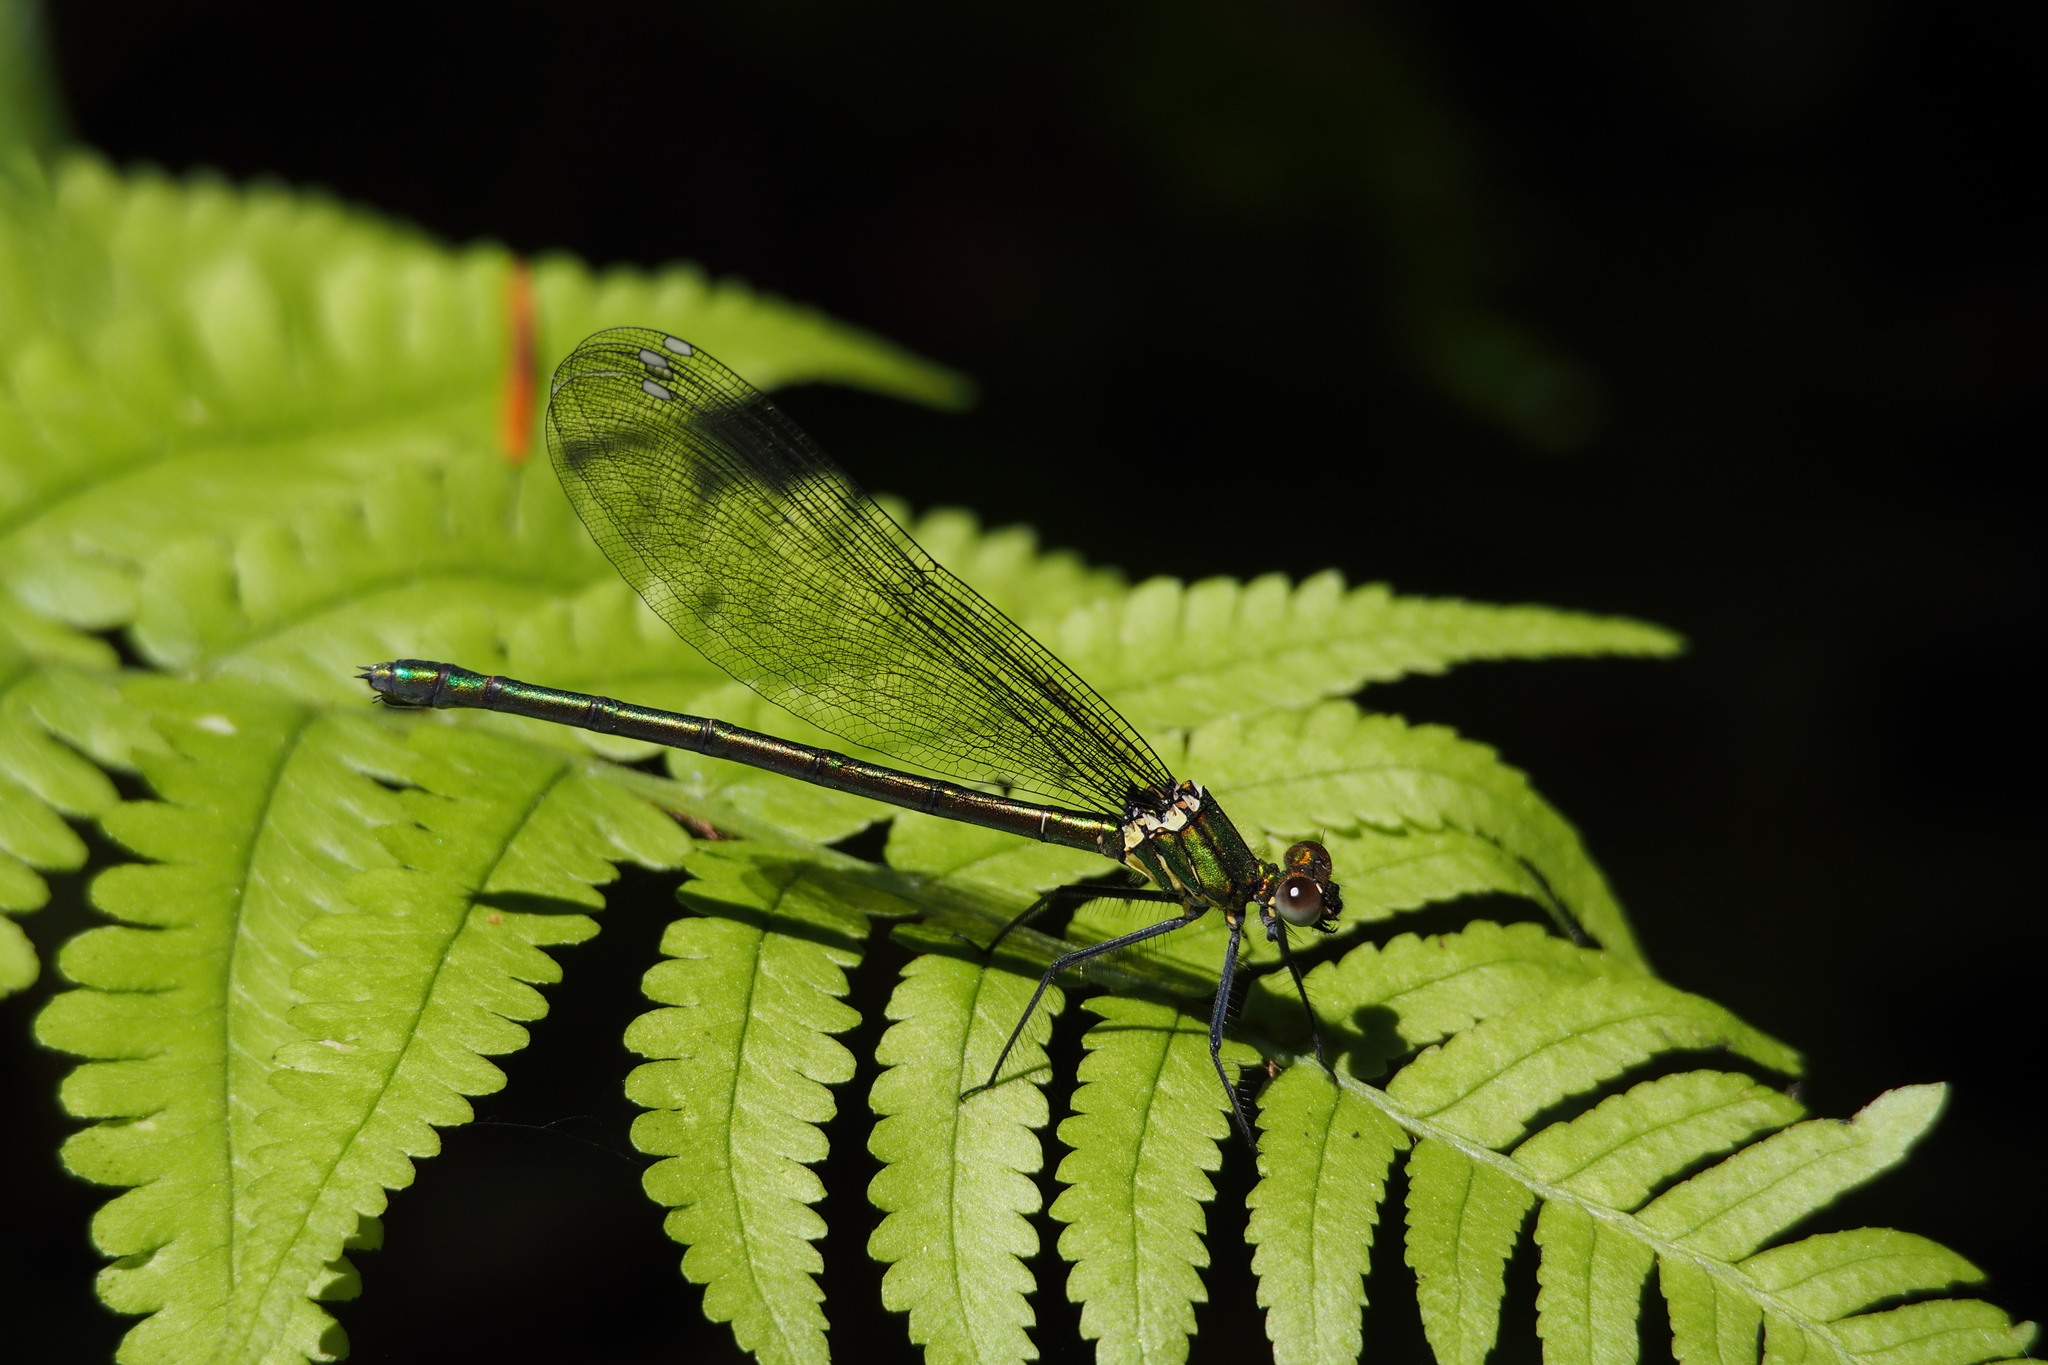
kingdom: Animalia
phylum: Arthropoda
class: Insecta
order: Odonata
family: Calopterygidae
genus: Mnais
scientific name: Mnais pruinosa
